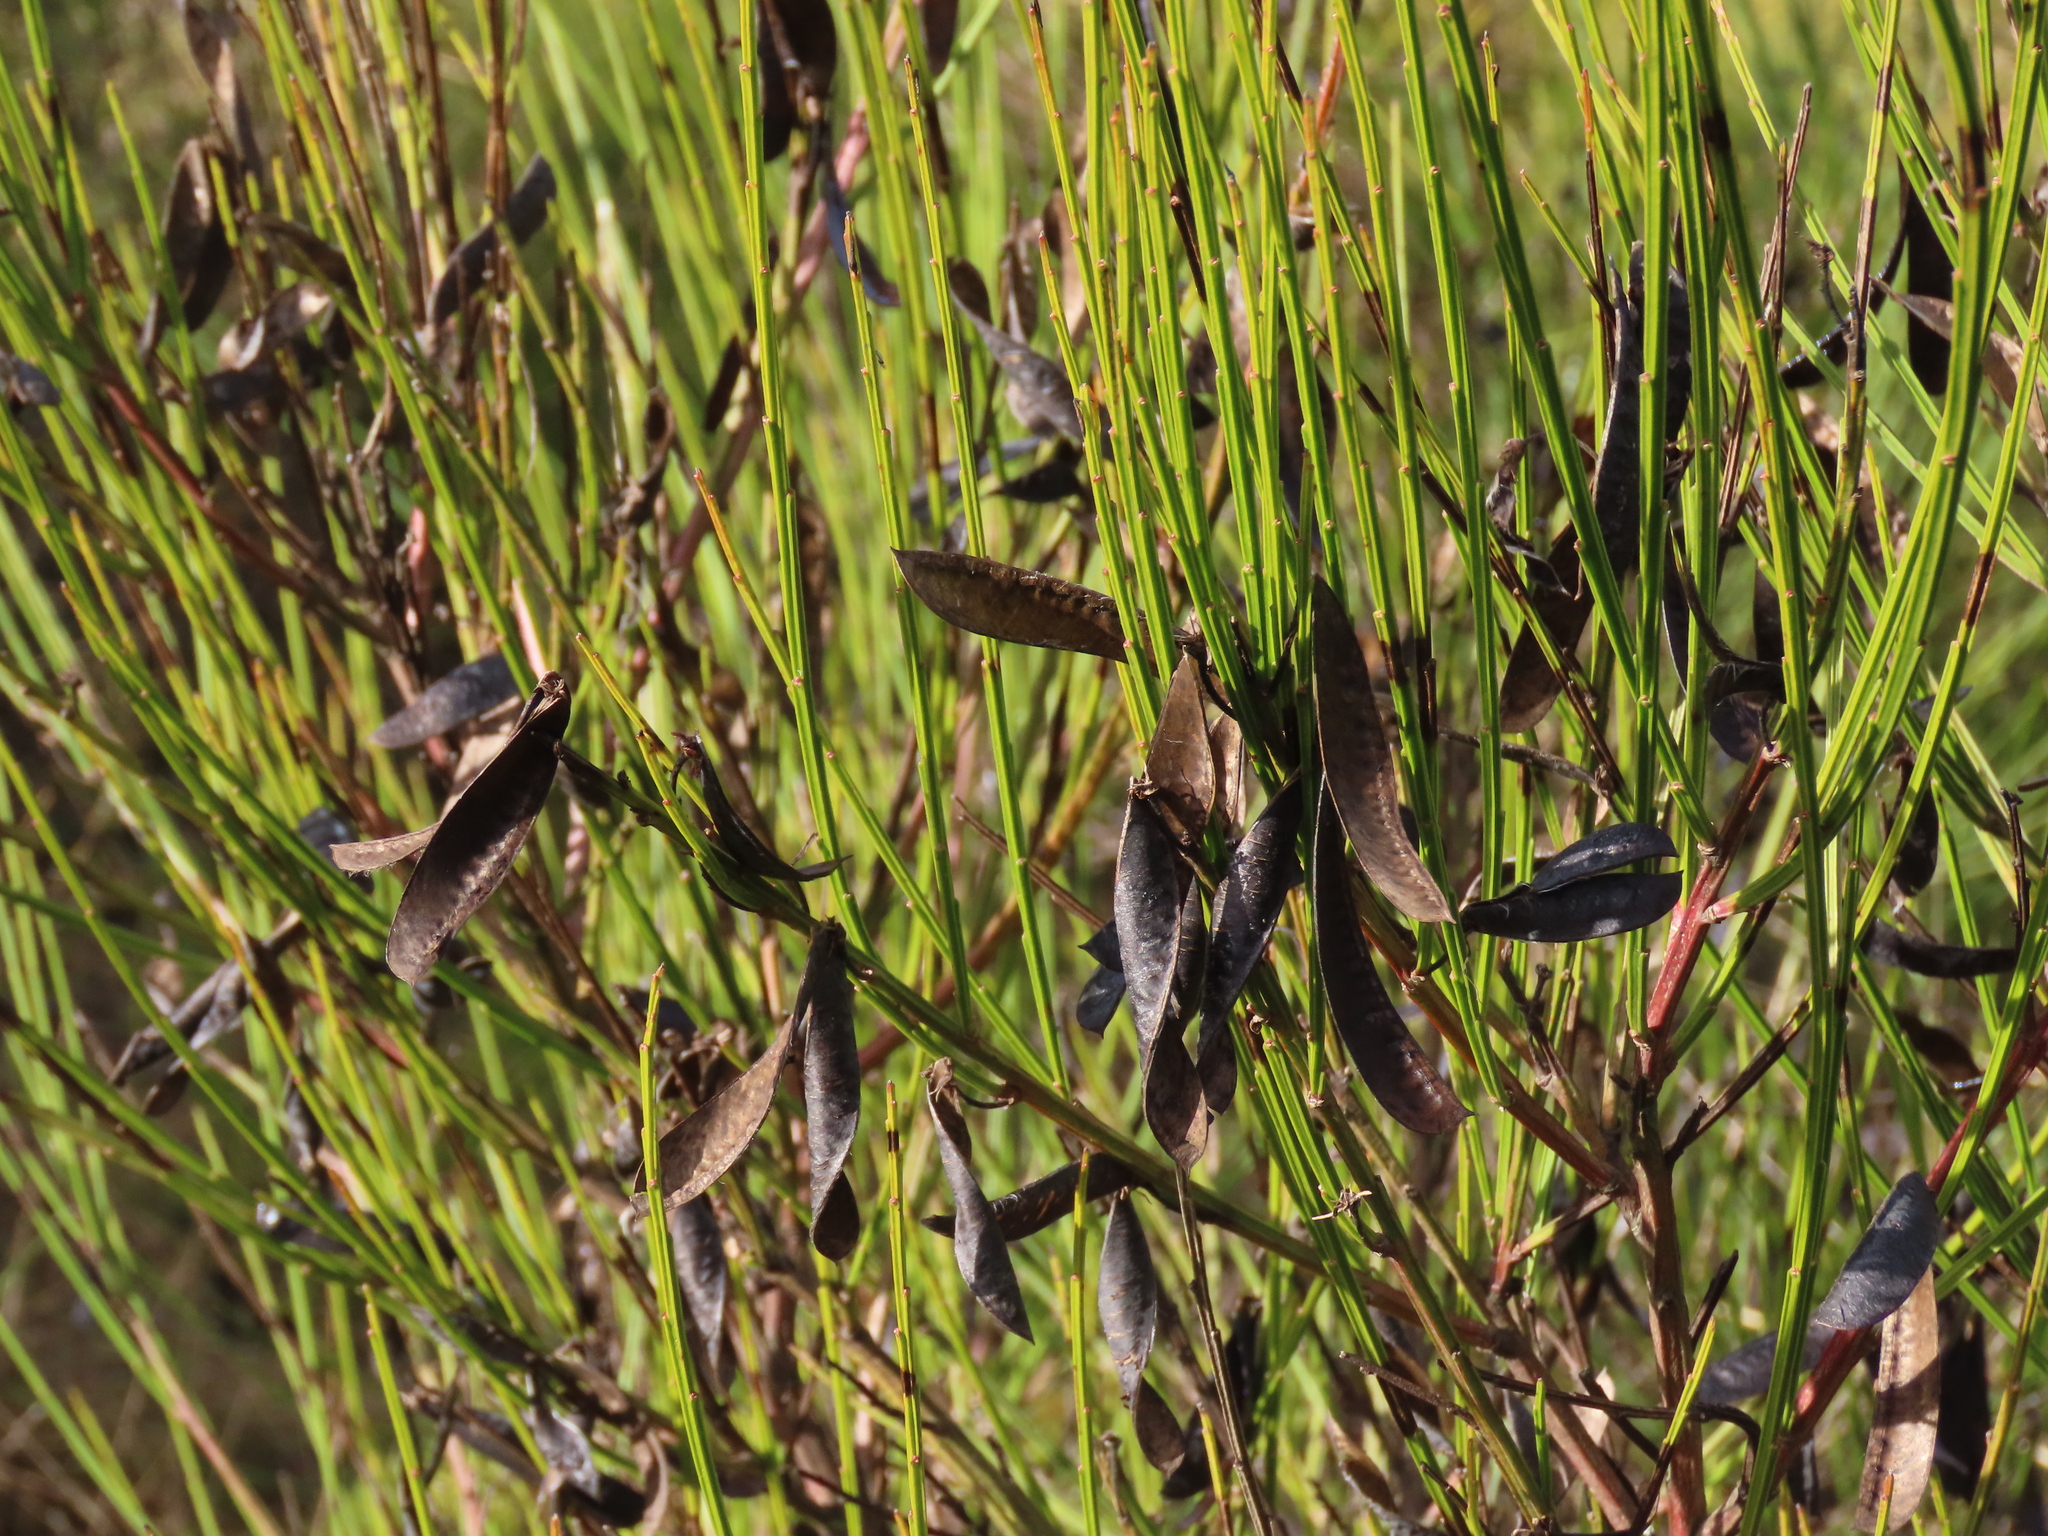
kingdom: Plantae
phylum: Tracheophyta
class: Magnoliopsida
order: Fabales
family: Fabaceae
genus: Cytisus
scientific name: Cytisus scoparius
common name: Scotch broom
